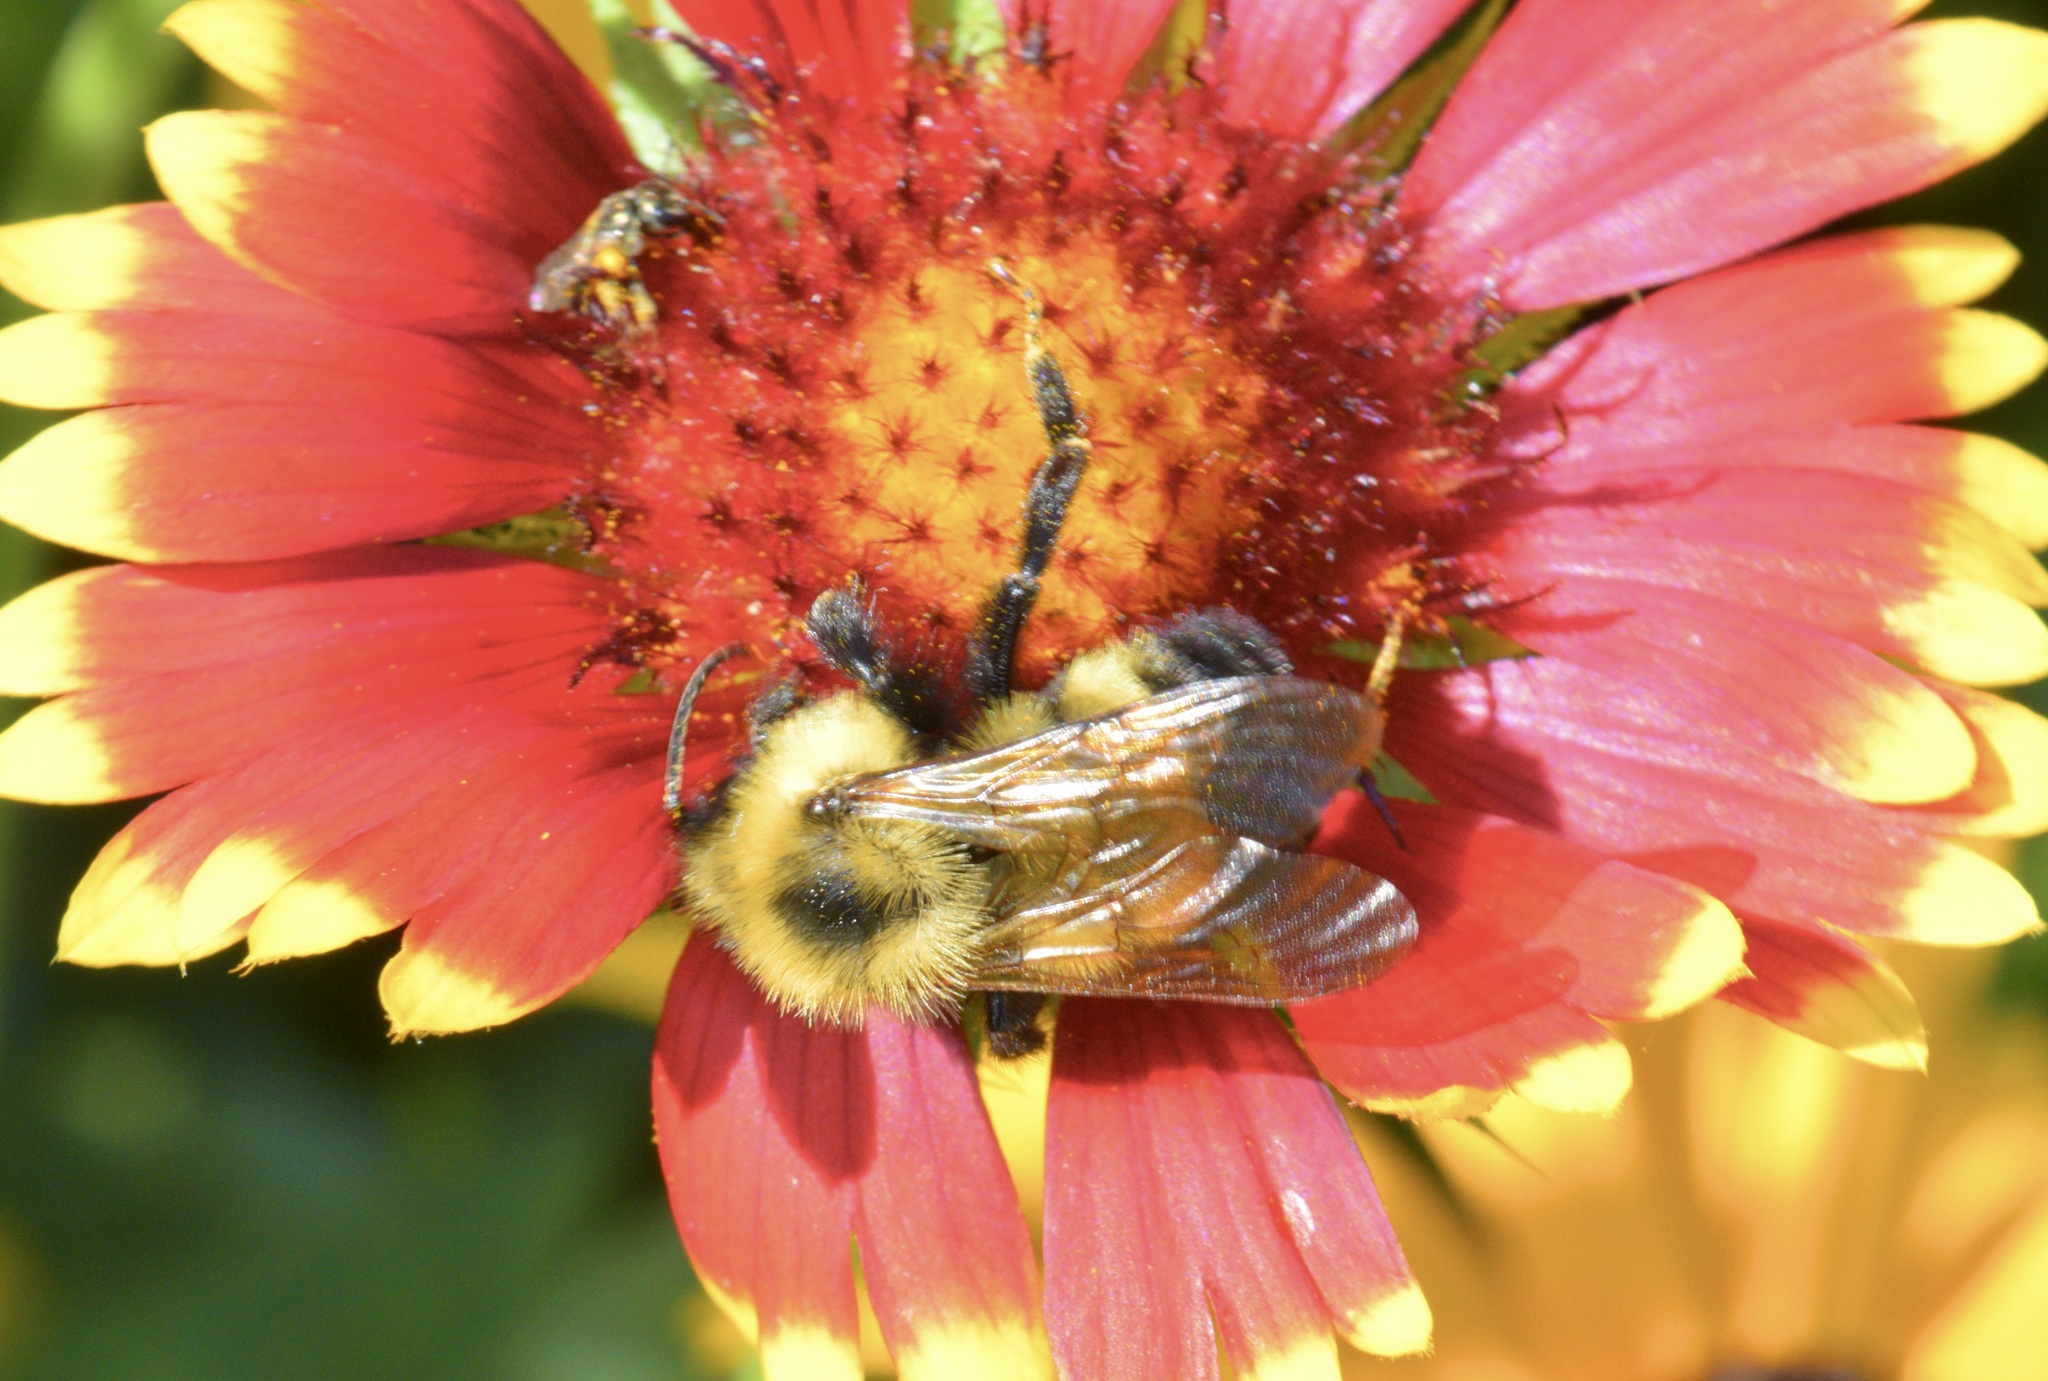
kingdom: Animalia
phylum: Arthropoda
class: Insecta
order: Hymenoptera
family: Apidae
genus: Bombus
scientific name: Bombus citrinus
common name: Lemon cuckoo bumble bee
